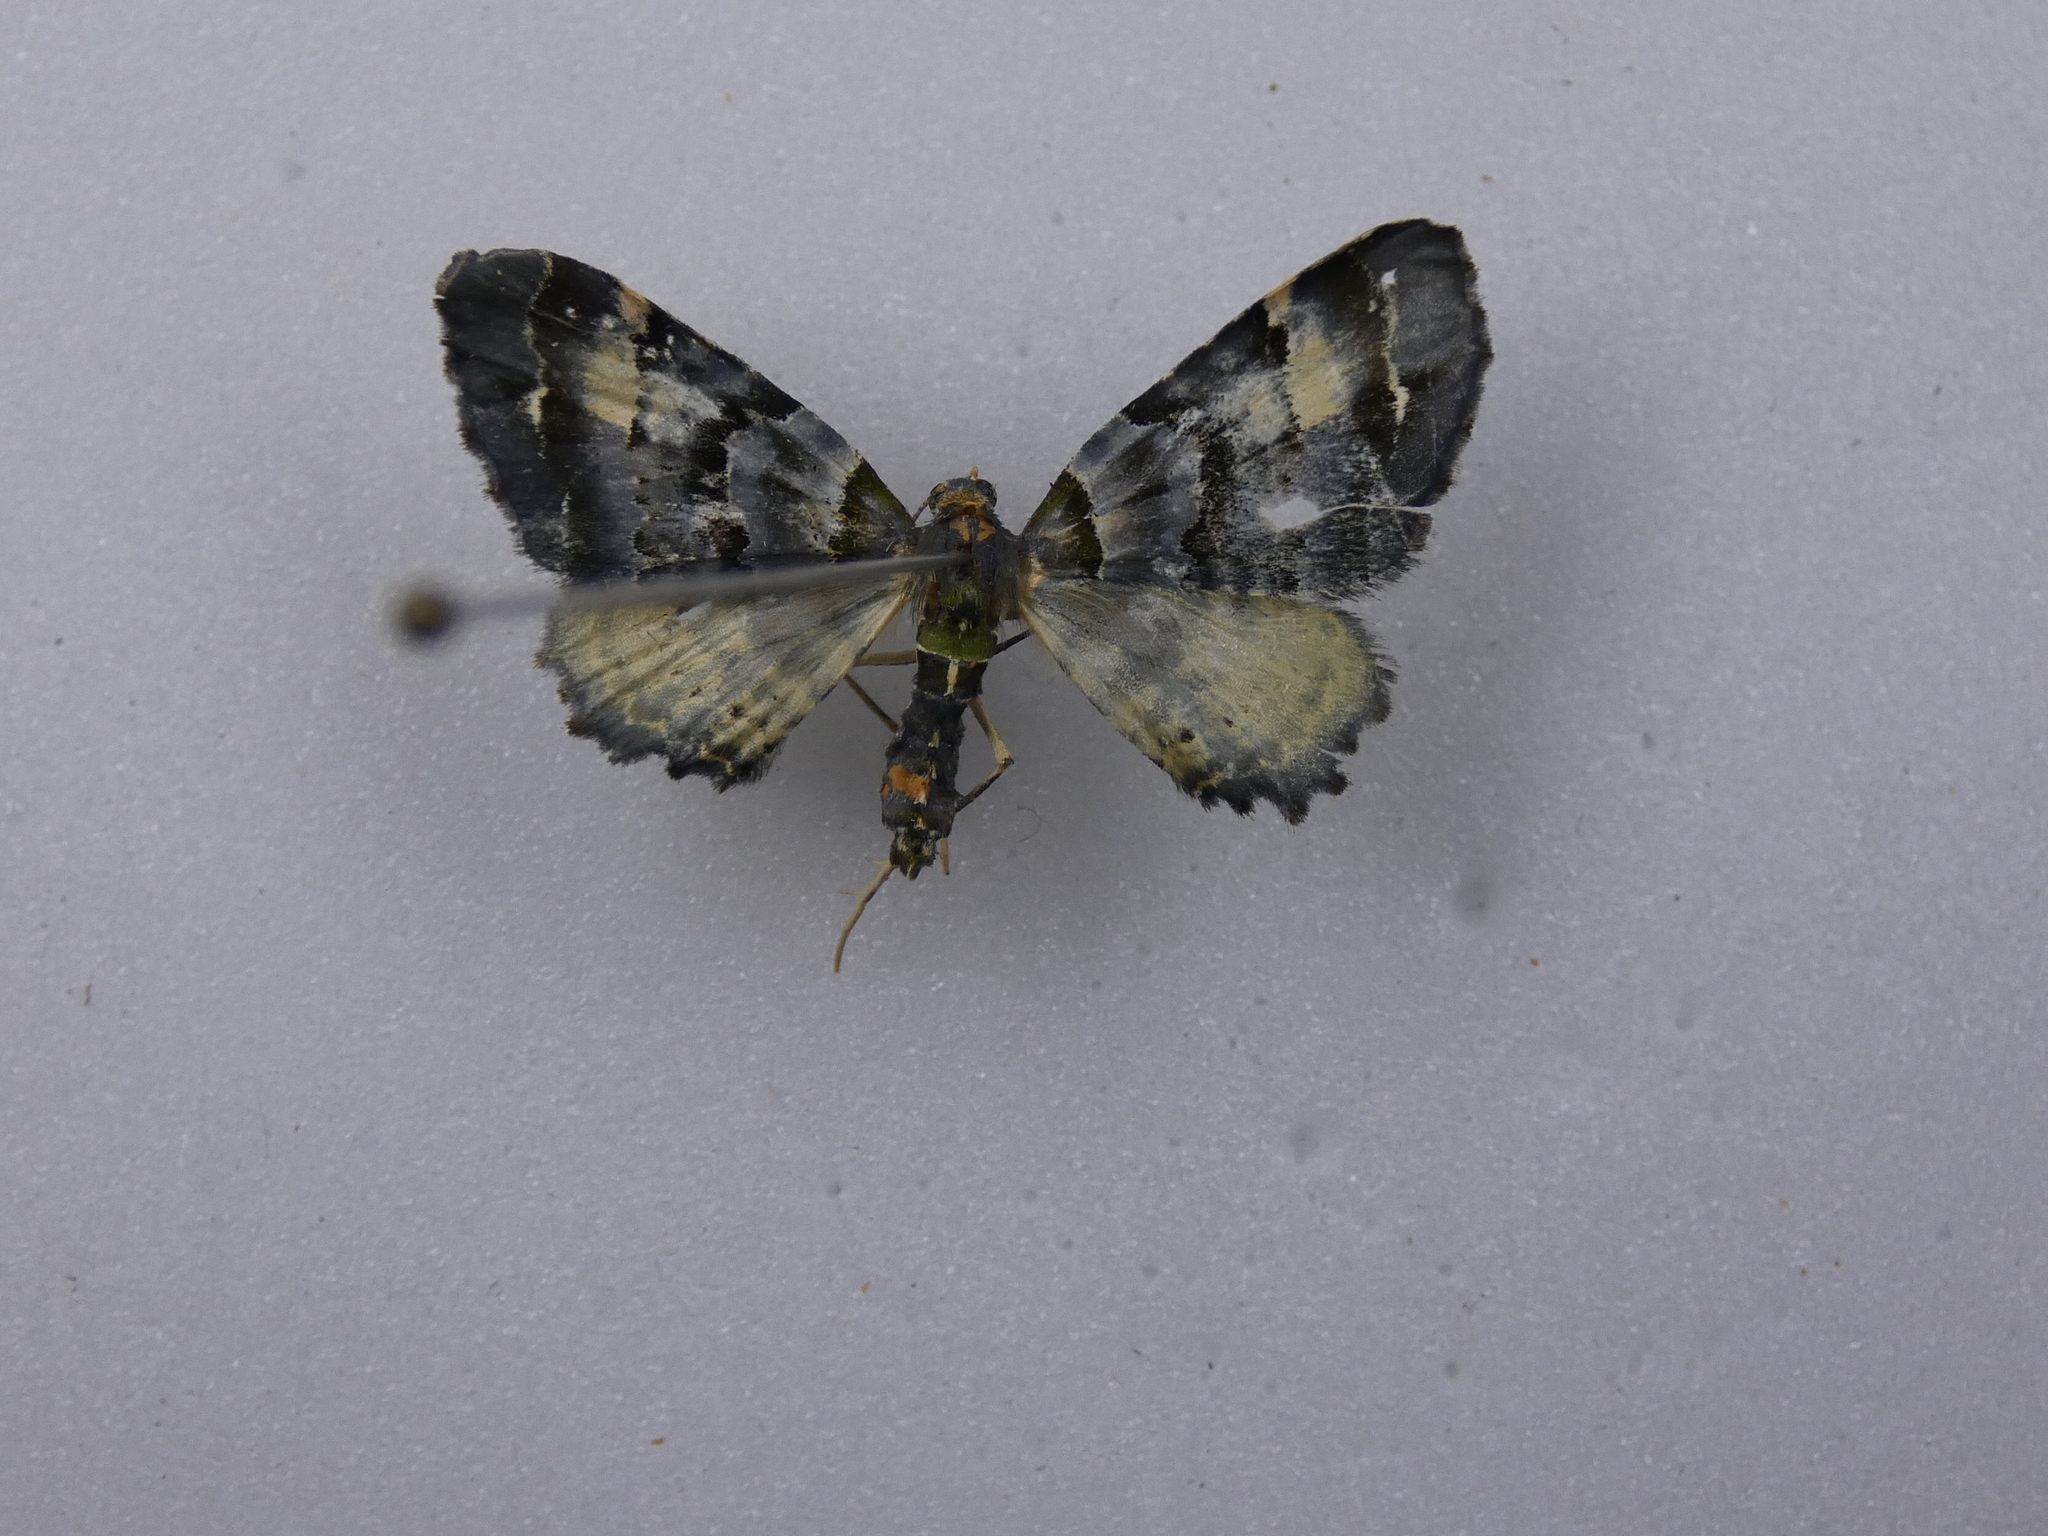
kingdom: Animalia
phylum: Arthropoda
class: Insecta
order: Lepidoptera
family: Geometridae
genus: Elvia
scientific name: Elvia glaucata
